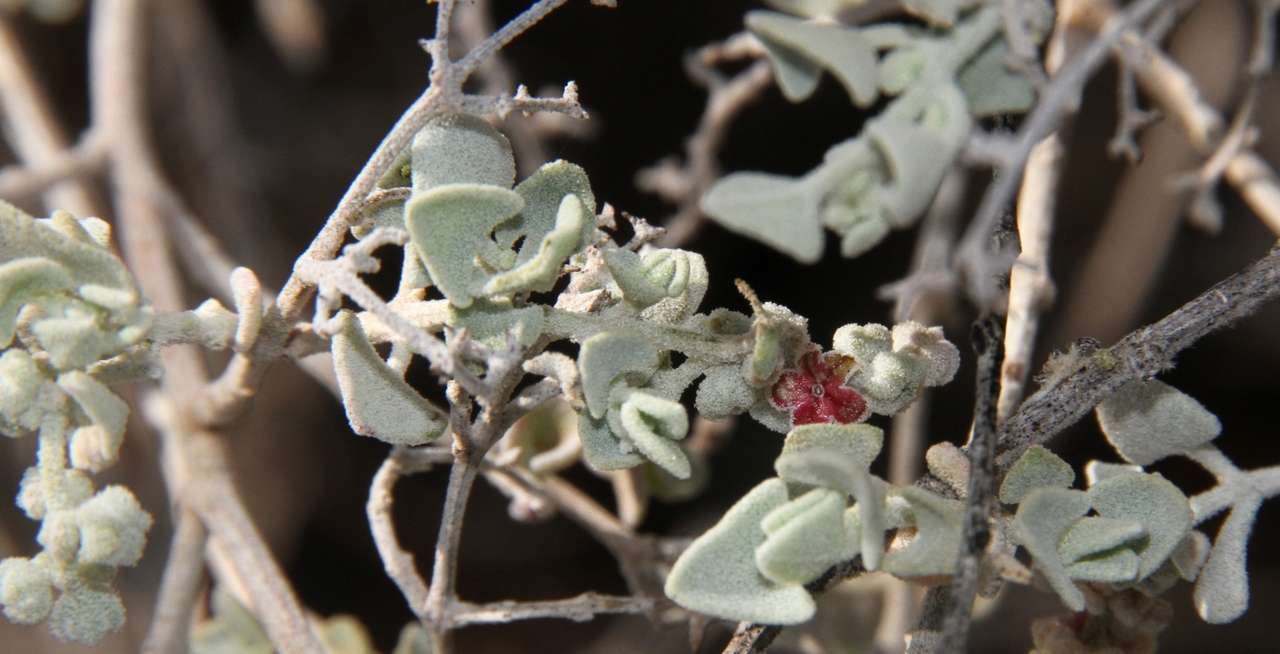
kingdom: Plantae
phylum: Tracheophyta
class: Magnoliopsida
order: Caryophyllales
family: Amaranthaceae
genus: Chenopodium
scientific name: Chenopodium curvispicatum
